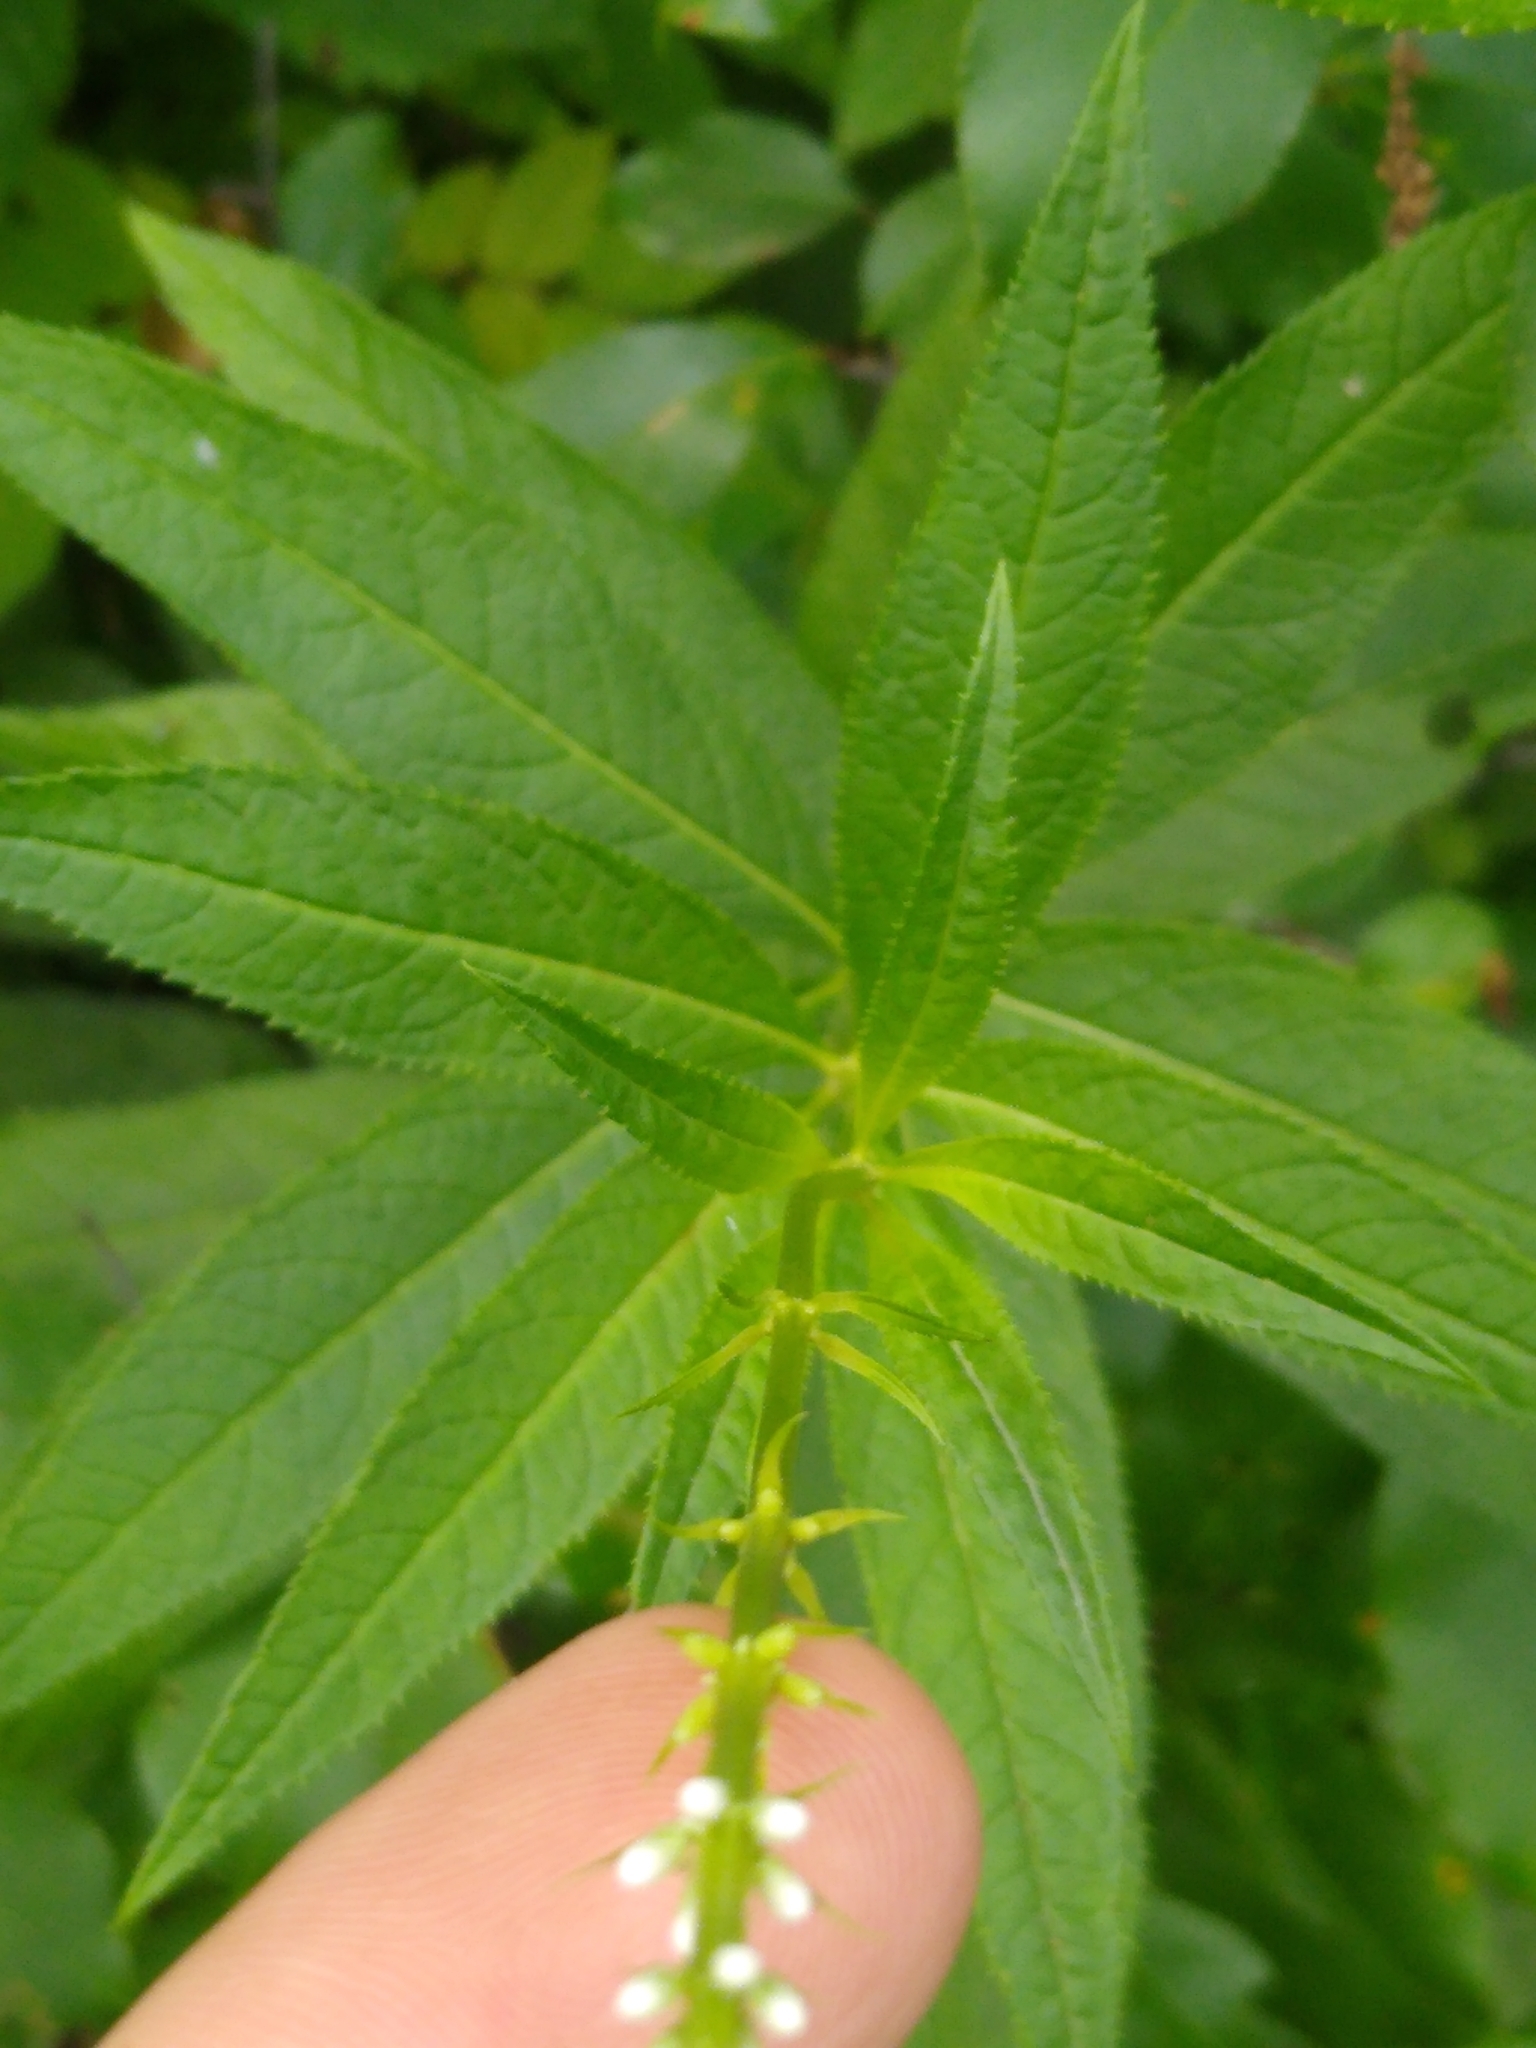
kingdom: Plantae
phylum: Tracheophyta
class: Magnoliopsida
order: Lamiales
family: Plantaginaceae
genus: Veronicastrum
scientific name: Veronicastrum virginicum
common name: Blackroot
